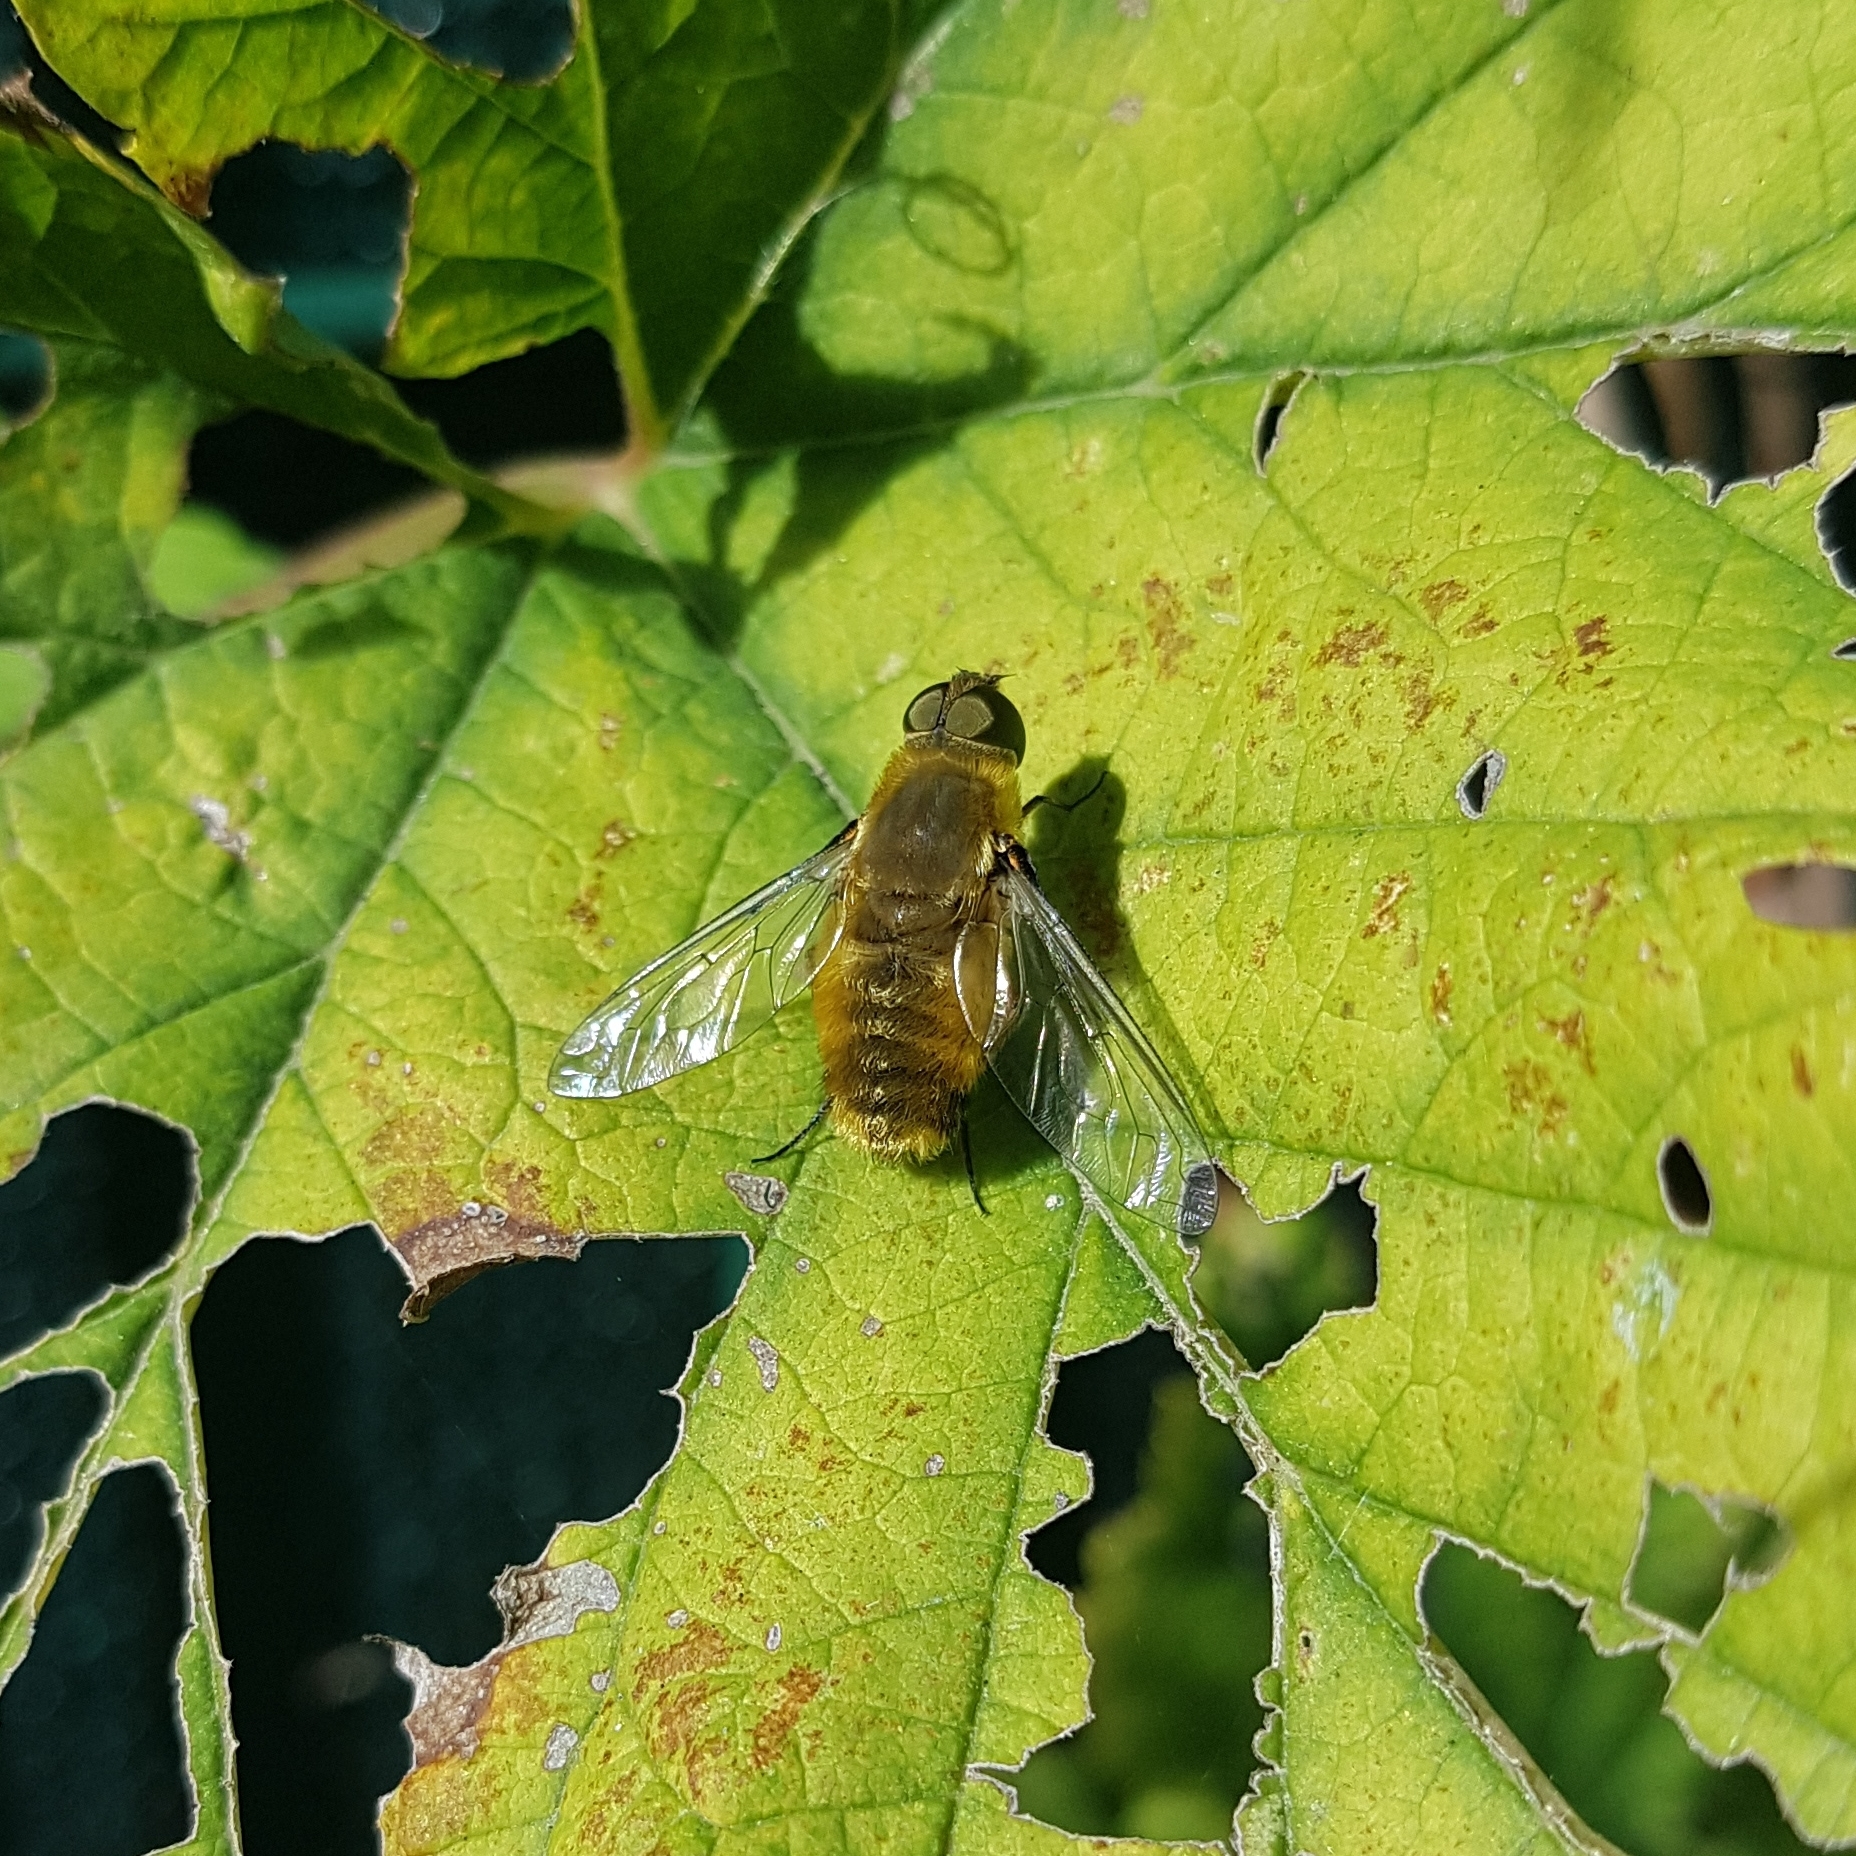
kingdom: Animalia
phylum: Arthropoda
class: Insecta
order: Diptera
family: Bombyliidae
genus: Villa
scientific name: Villa hottentotta
